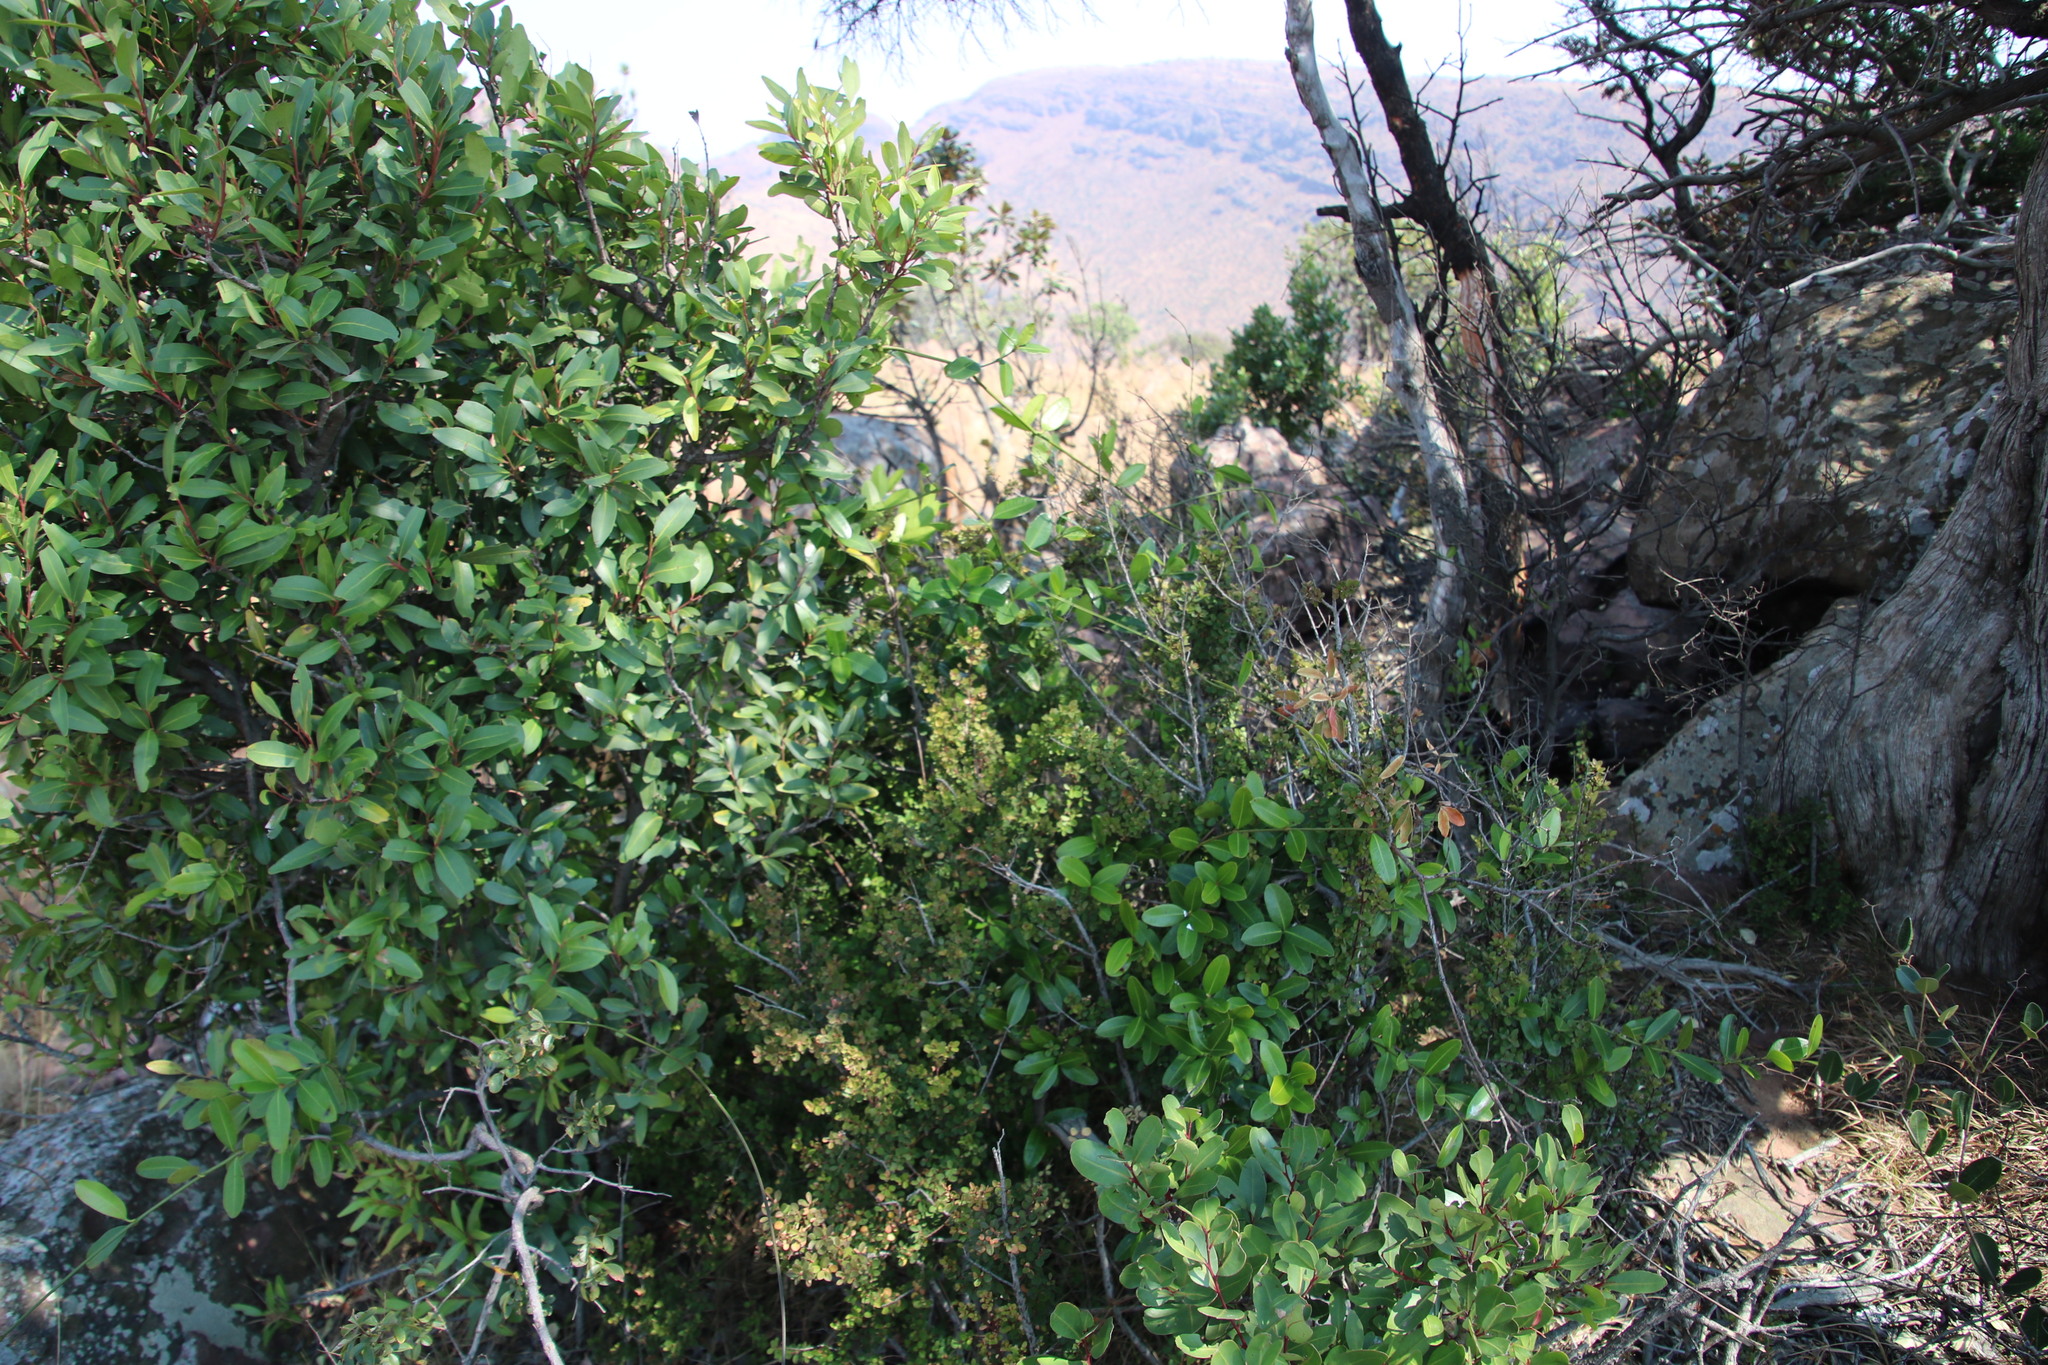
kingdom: Plantae
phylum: Tracheophyta
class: Magnoliopsida
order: Ericales
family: Primulaceae
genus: Myrsine
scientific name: Myrsine africana
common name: African-boxwood
